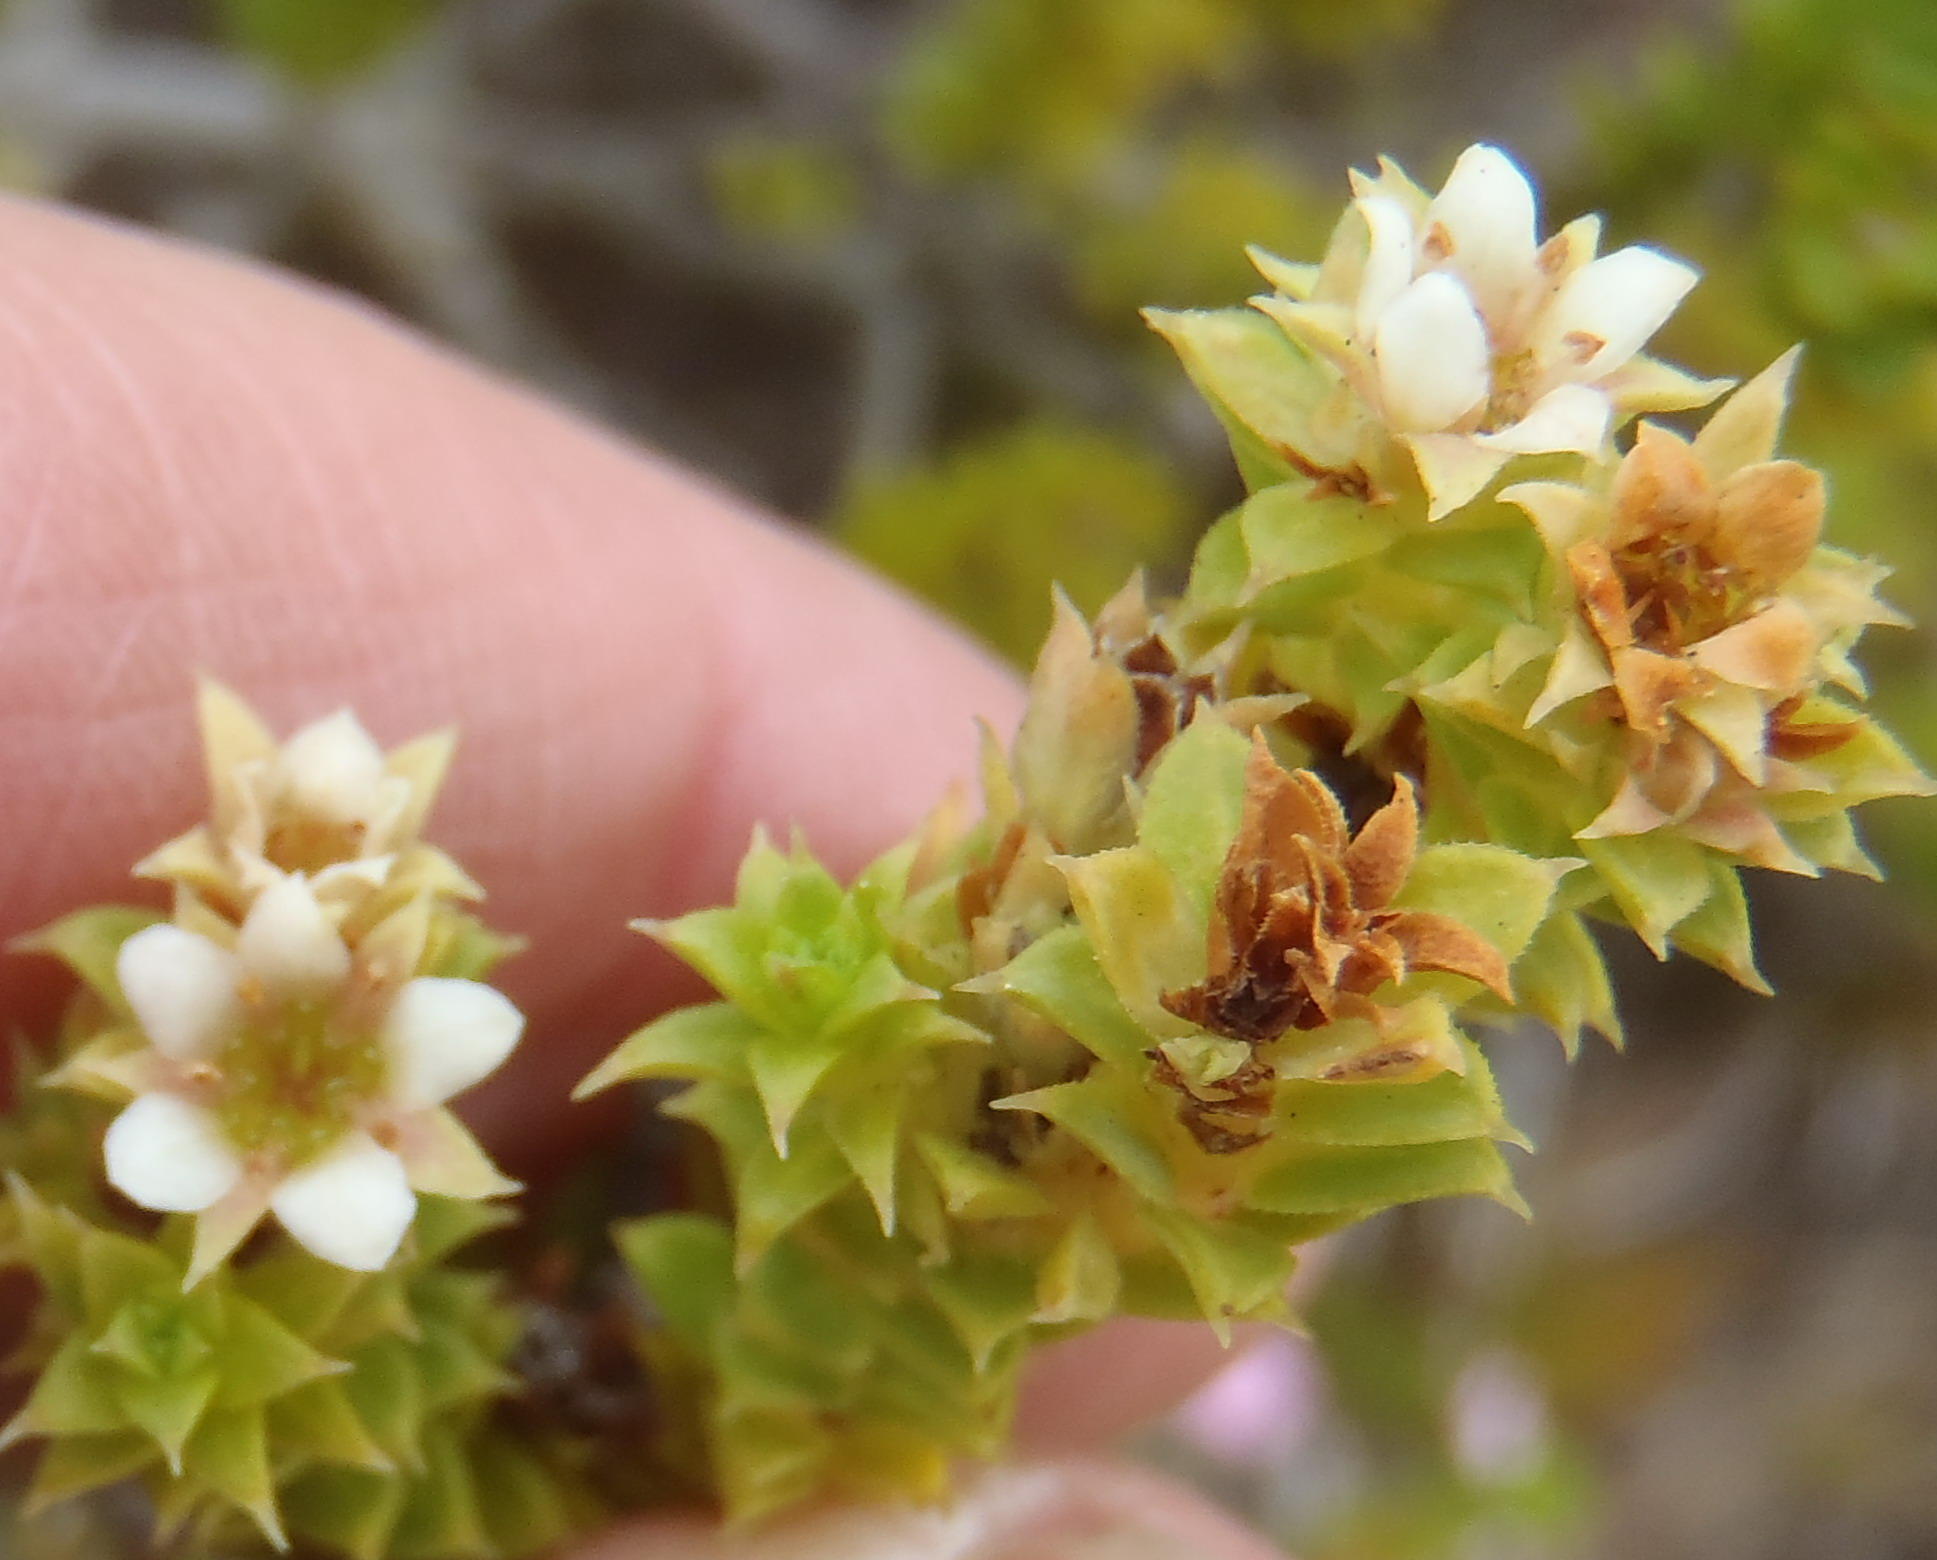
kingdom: Plantae
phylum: Tracheophyta
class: Magnoliopsida
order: Sapindales
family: Rutaceae
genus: Diosma
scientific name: Diosma echinulata
